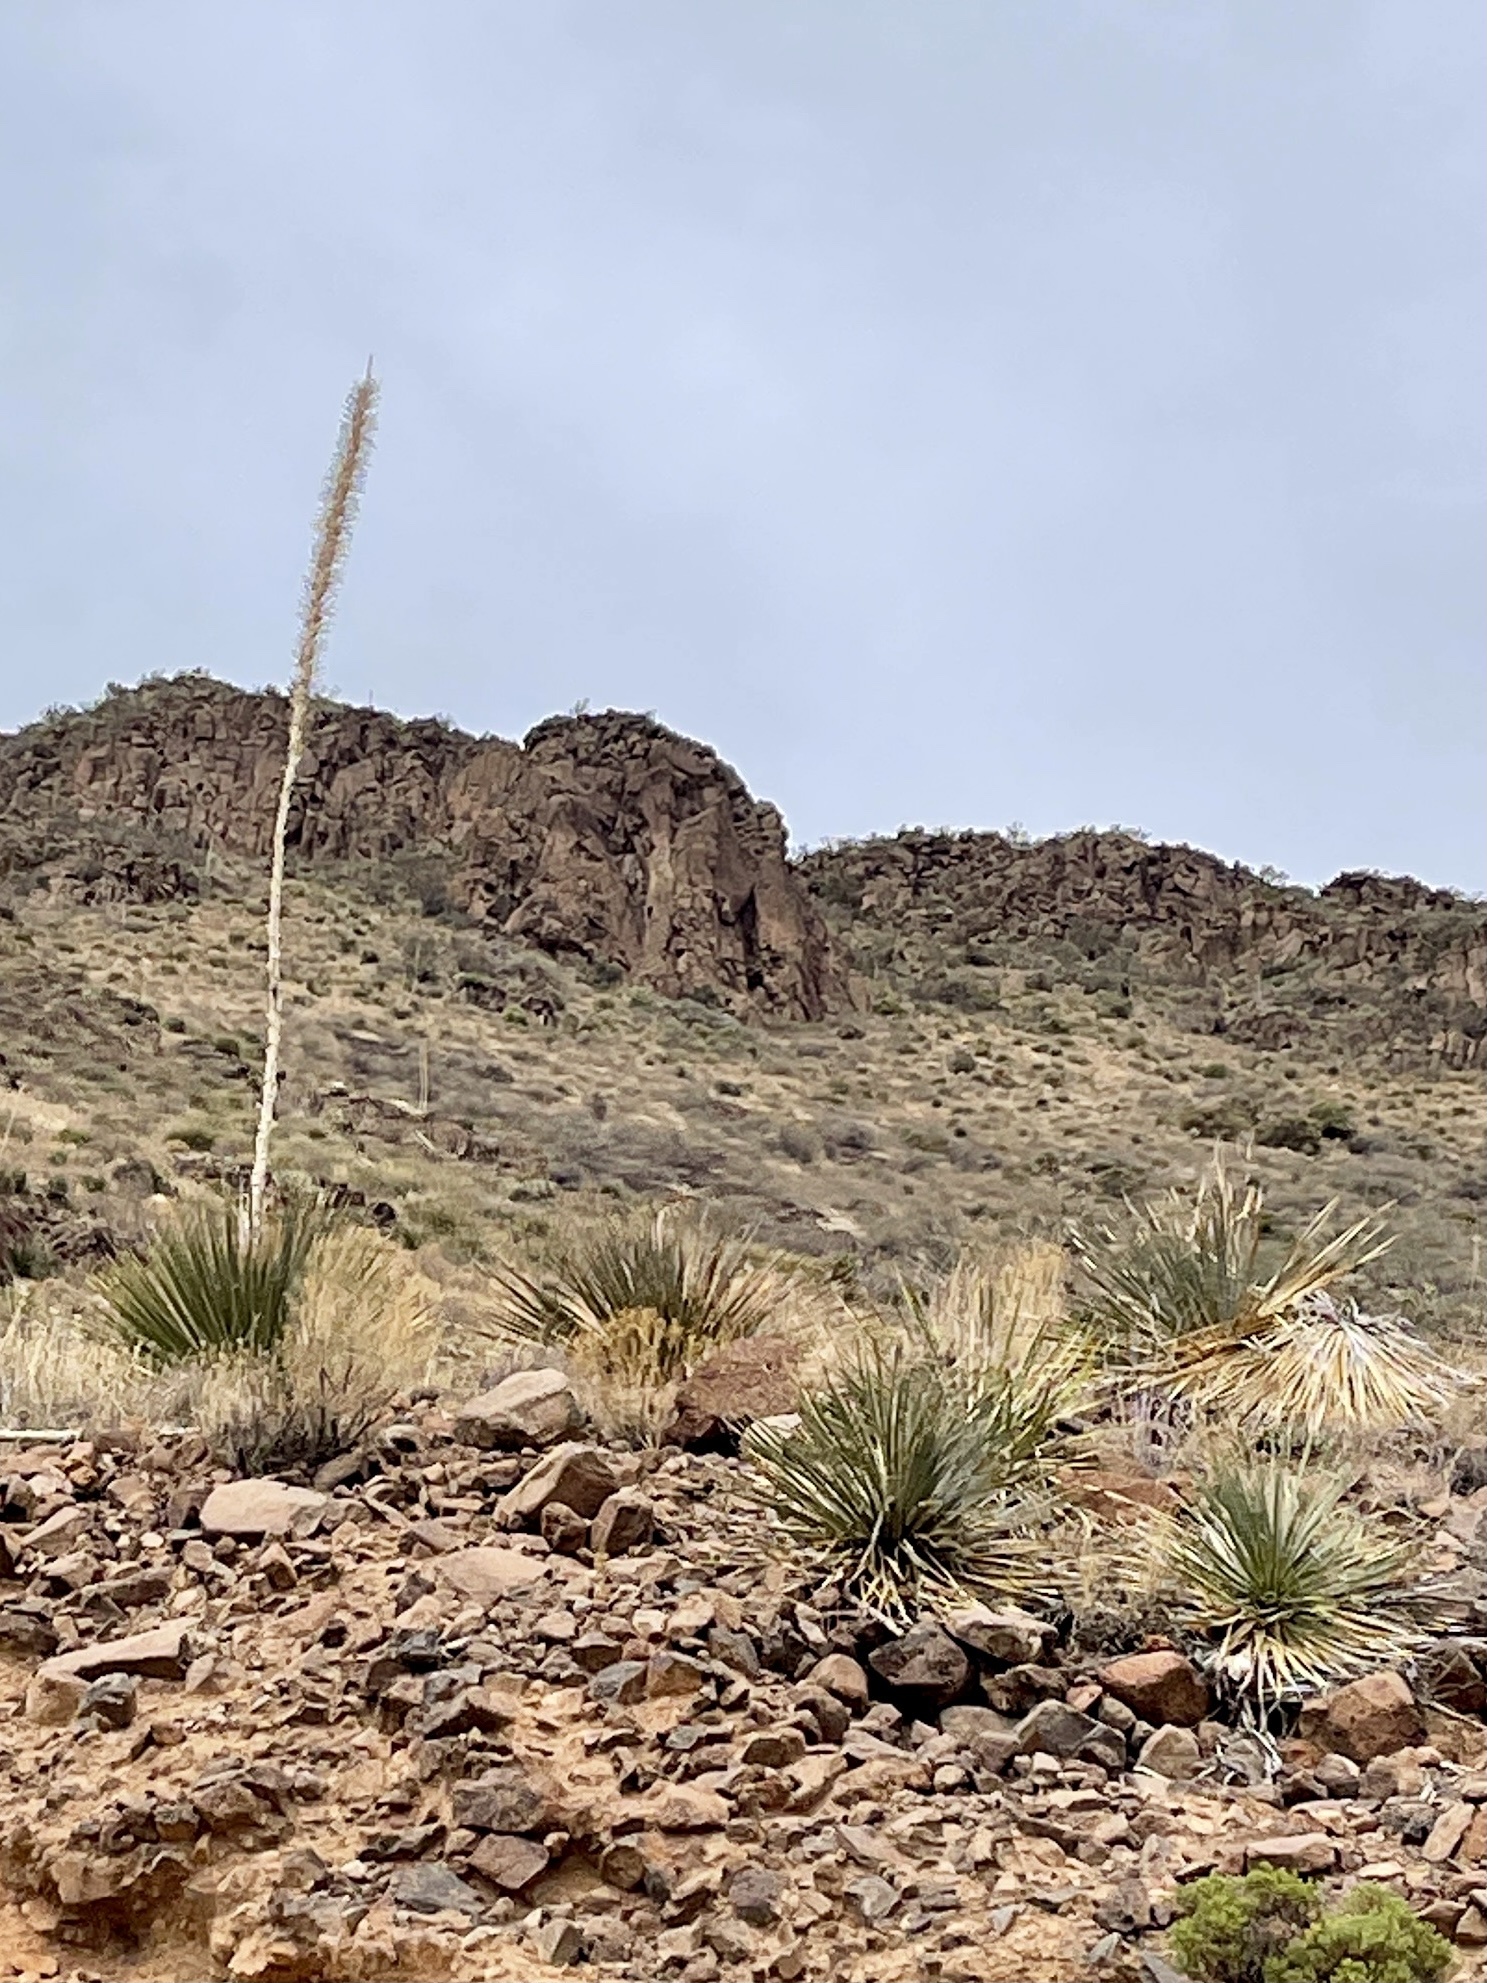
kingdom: Plantae
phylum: Tracheophyta
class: Liliopsida
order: Asparagales
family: Asparagaceae
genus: Dasylirion
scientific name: Dasylirion wheeleri
